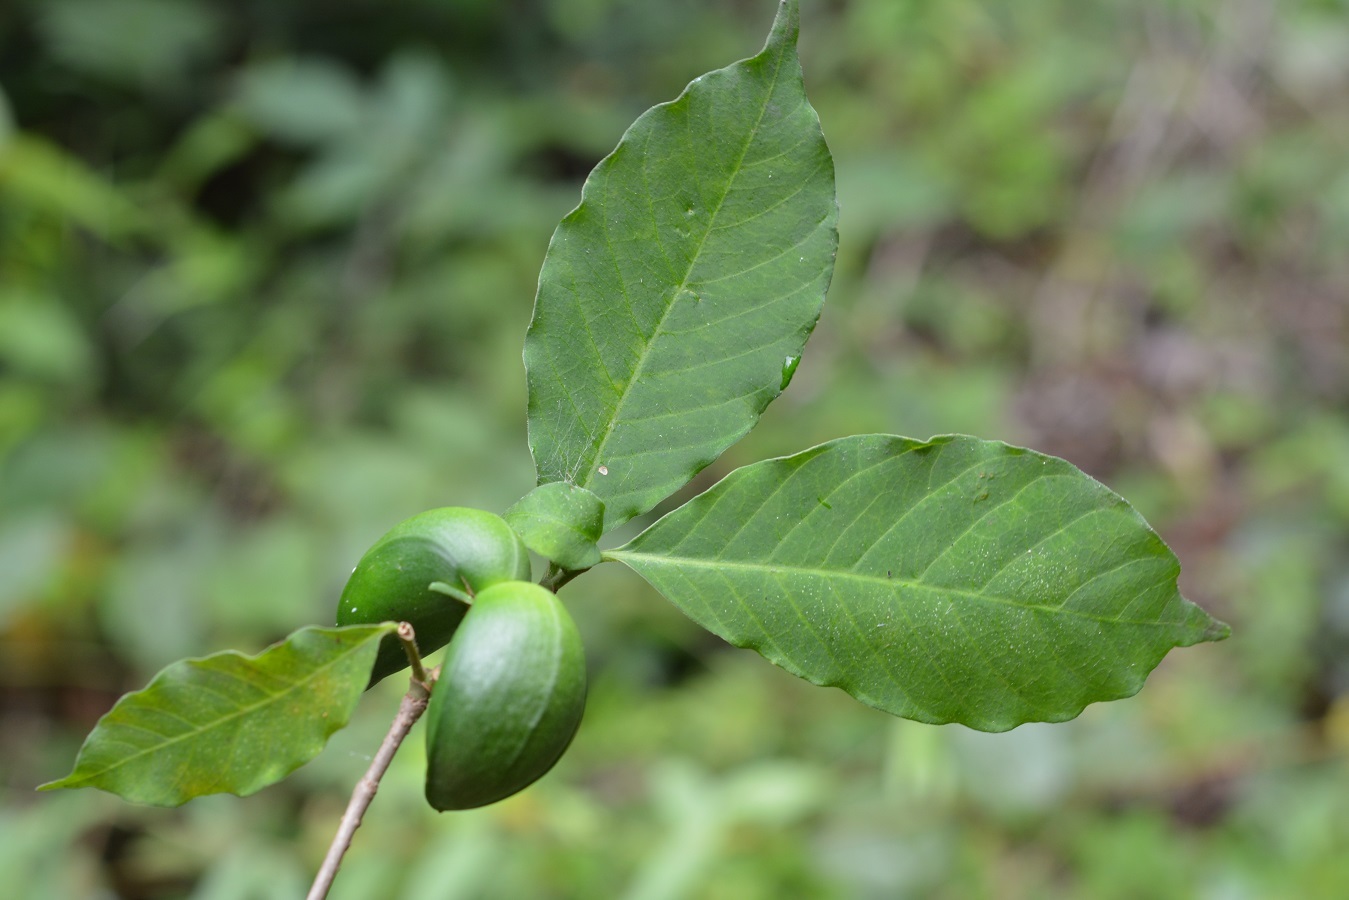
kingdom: Plantae
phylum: Tracheophyta
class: Magnoliopsida
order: Gentianales
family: Apocynaceae
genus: Tabernaemontana
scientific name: Tabernaemontana hannae
